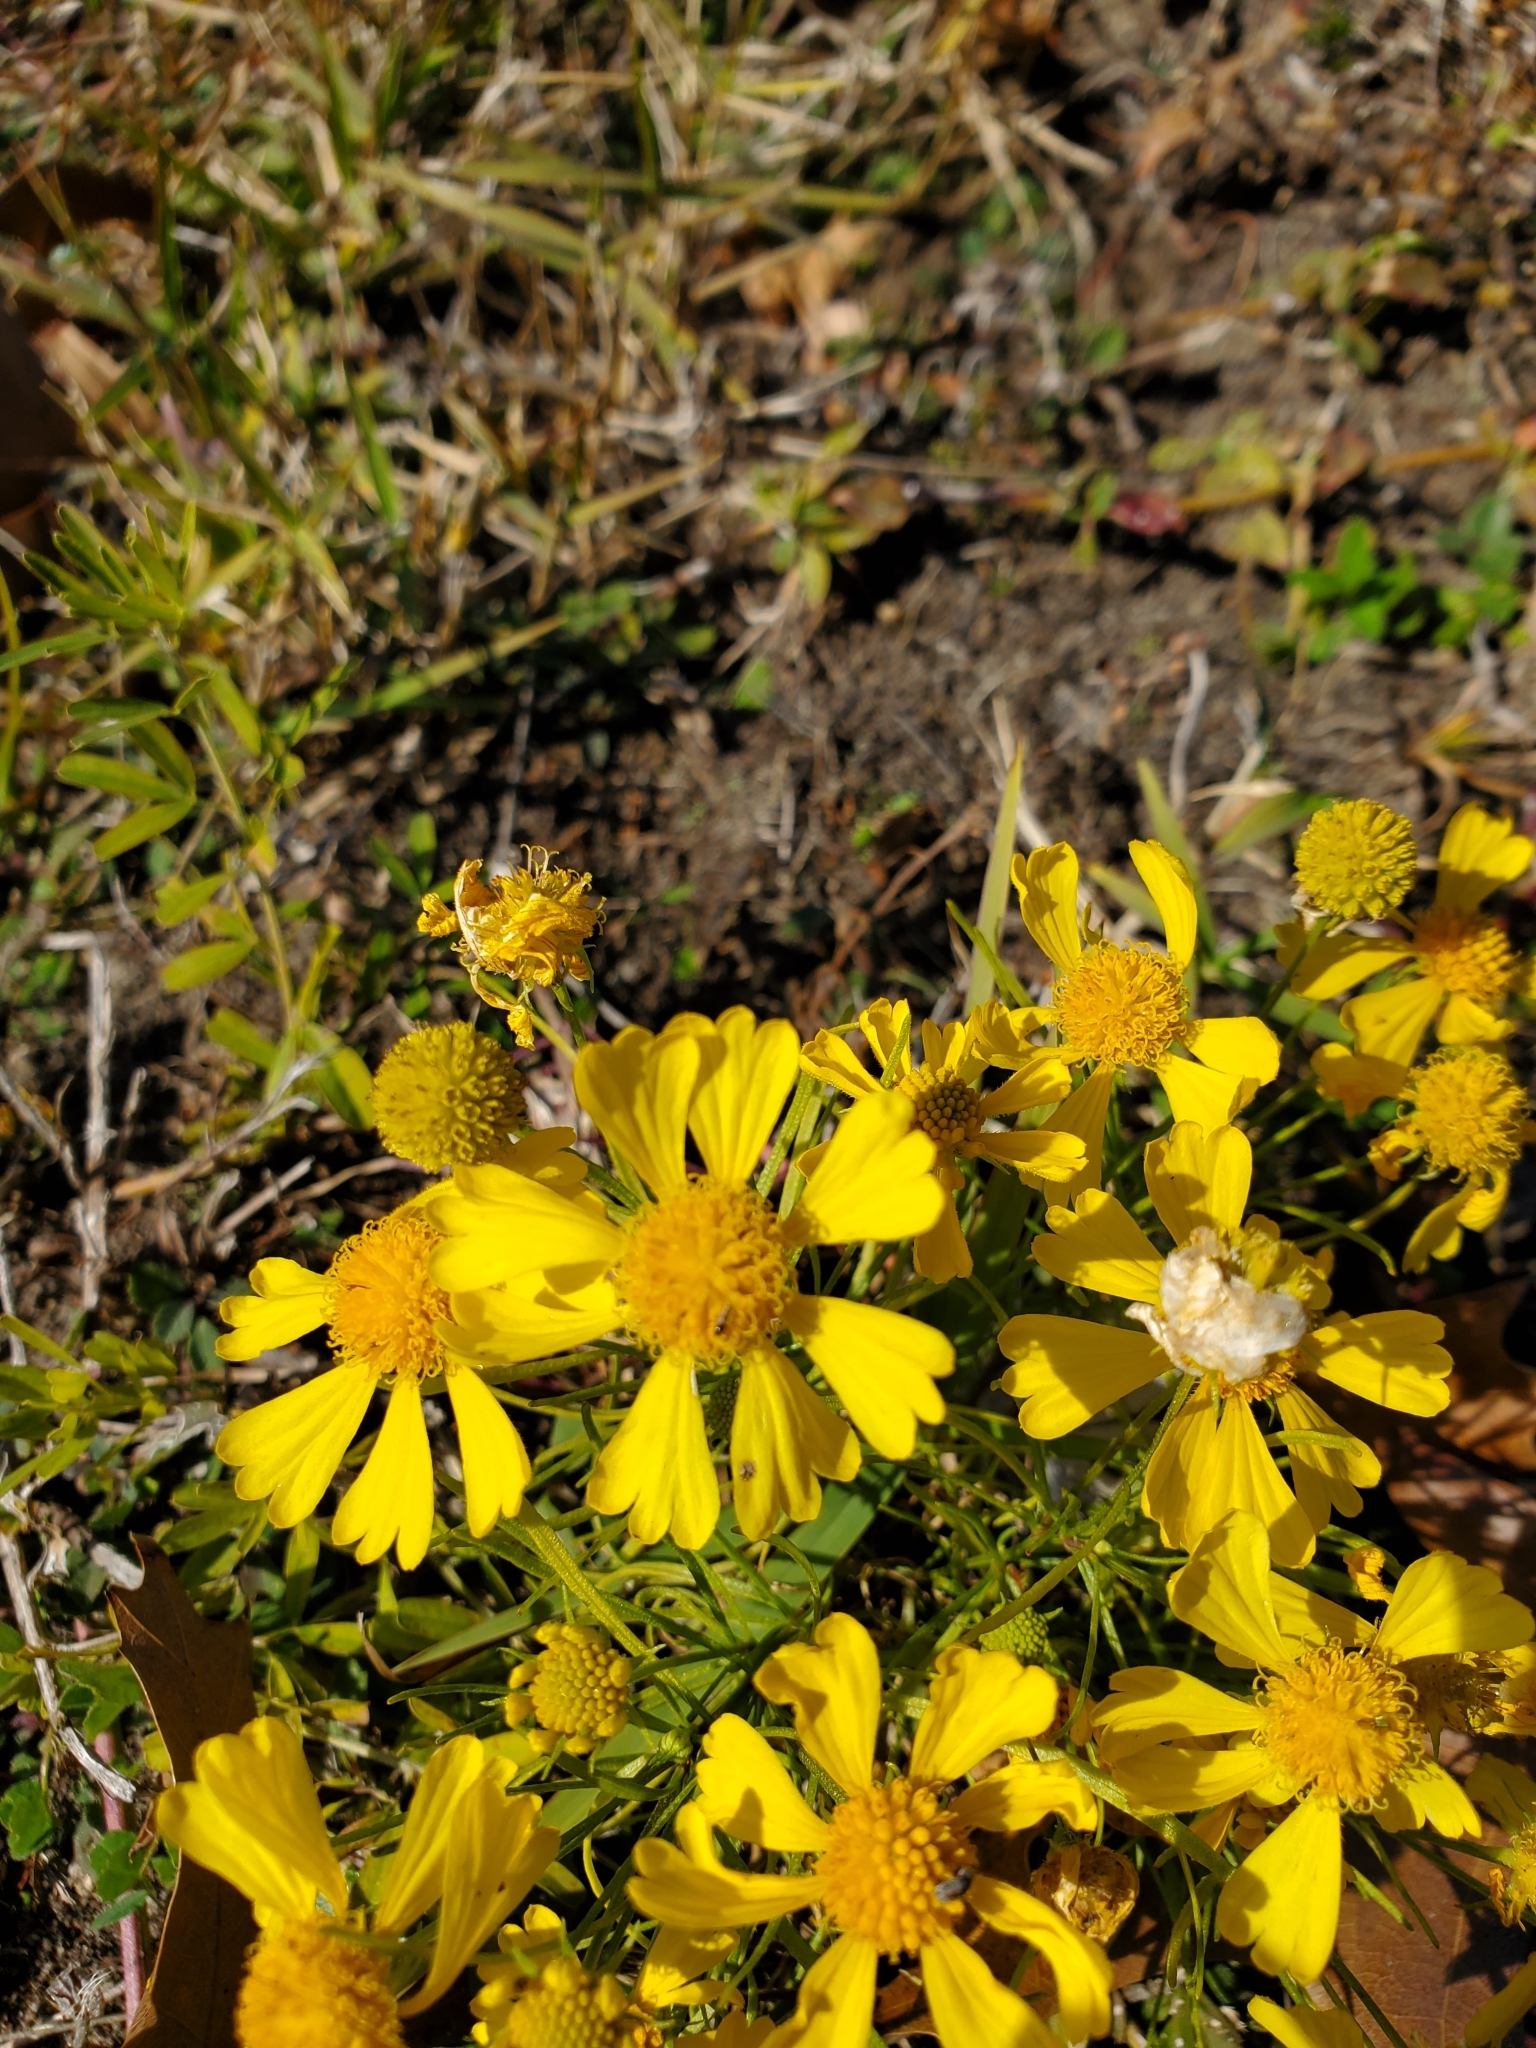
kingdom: Plantae
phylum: Tracheophyta
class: Magnoliopsida
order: Asterales
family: Asteraceae
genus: Helenium
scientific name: Helenium amarum
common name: Bitter sneezeweed
